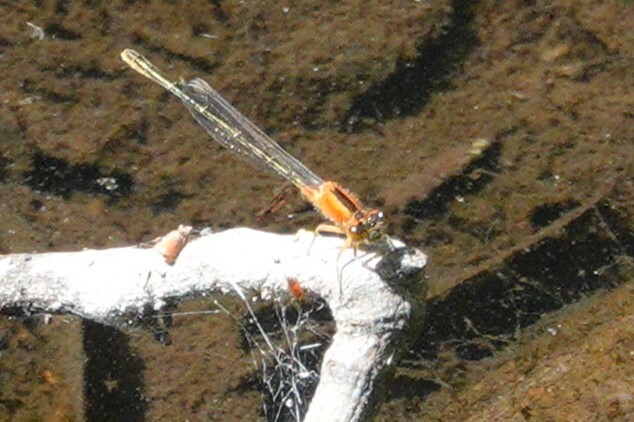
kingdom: Animalia
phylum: Arthropoda
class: Insecta
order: Odonata
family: Coenagrionidae
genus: Ischnura
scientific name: Ischnura ramburii
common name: Rambur's forktail
